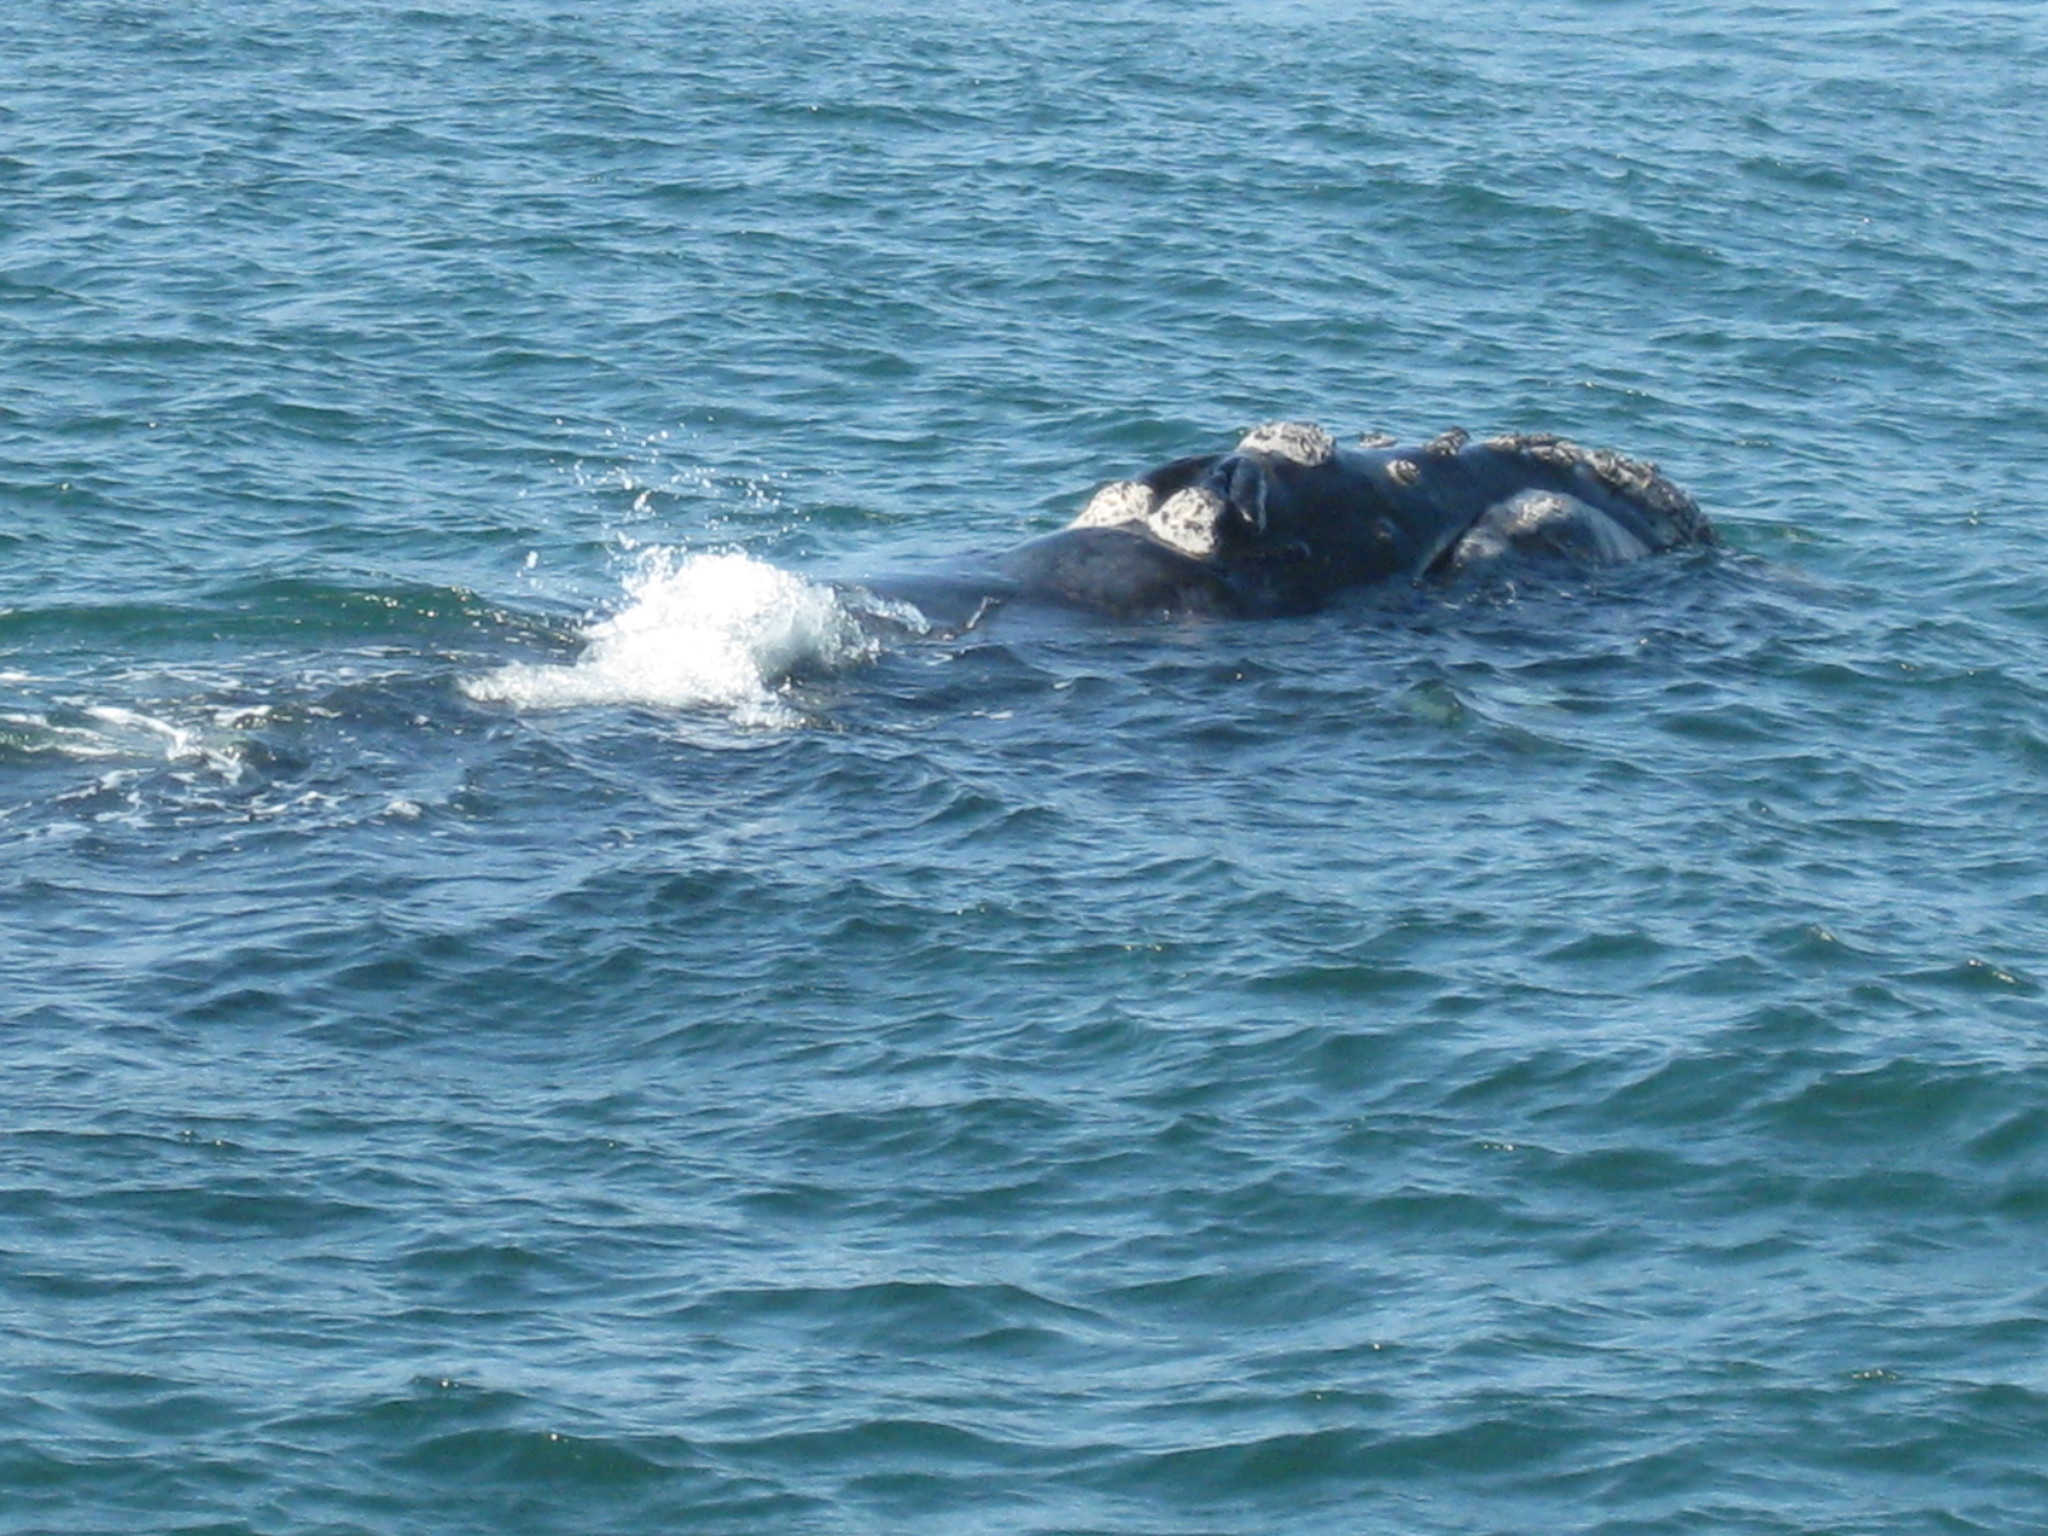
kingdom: Animalia
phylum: Chordata
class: Mammalia
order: Cetacea
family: Balaenidae
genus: Eubalaena
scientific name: Eubalaena australis
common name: Southern right whale
